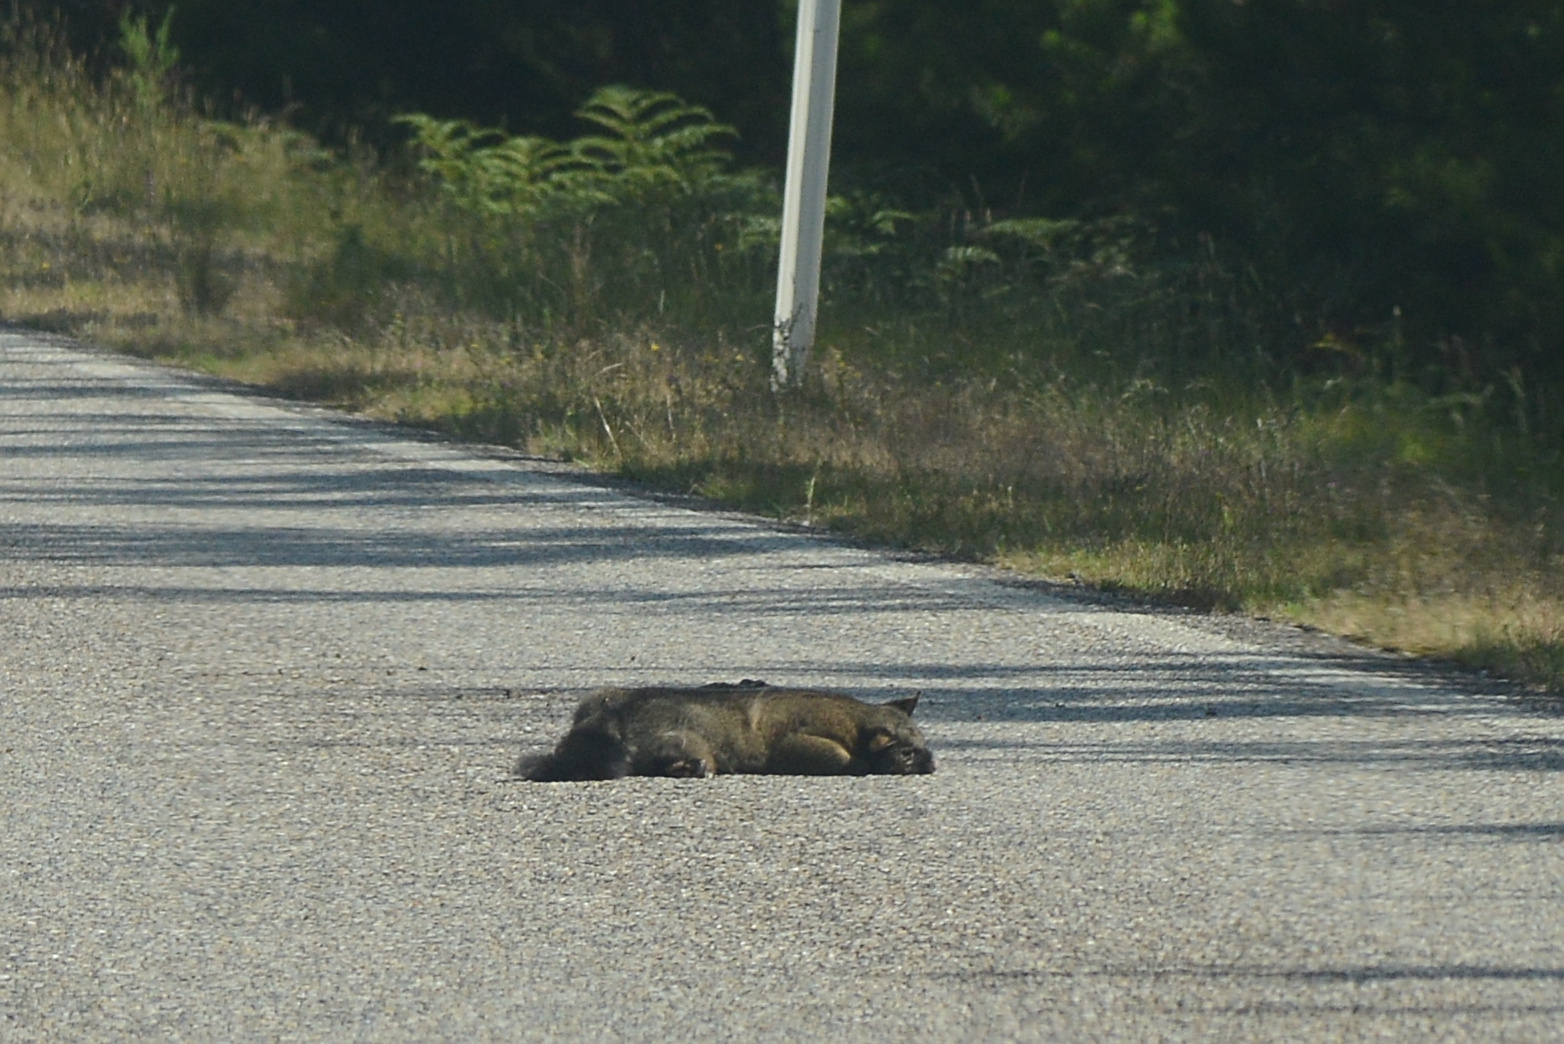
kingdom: Animalia
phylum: Chordata
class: Mammalia
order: Diprotodontia
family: Phalangeridae
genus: Trichosurus
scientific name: Trichosurus vulpecula
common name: Common brushtail
